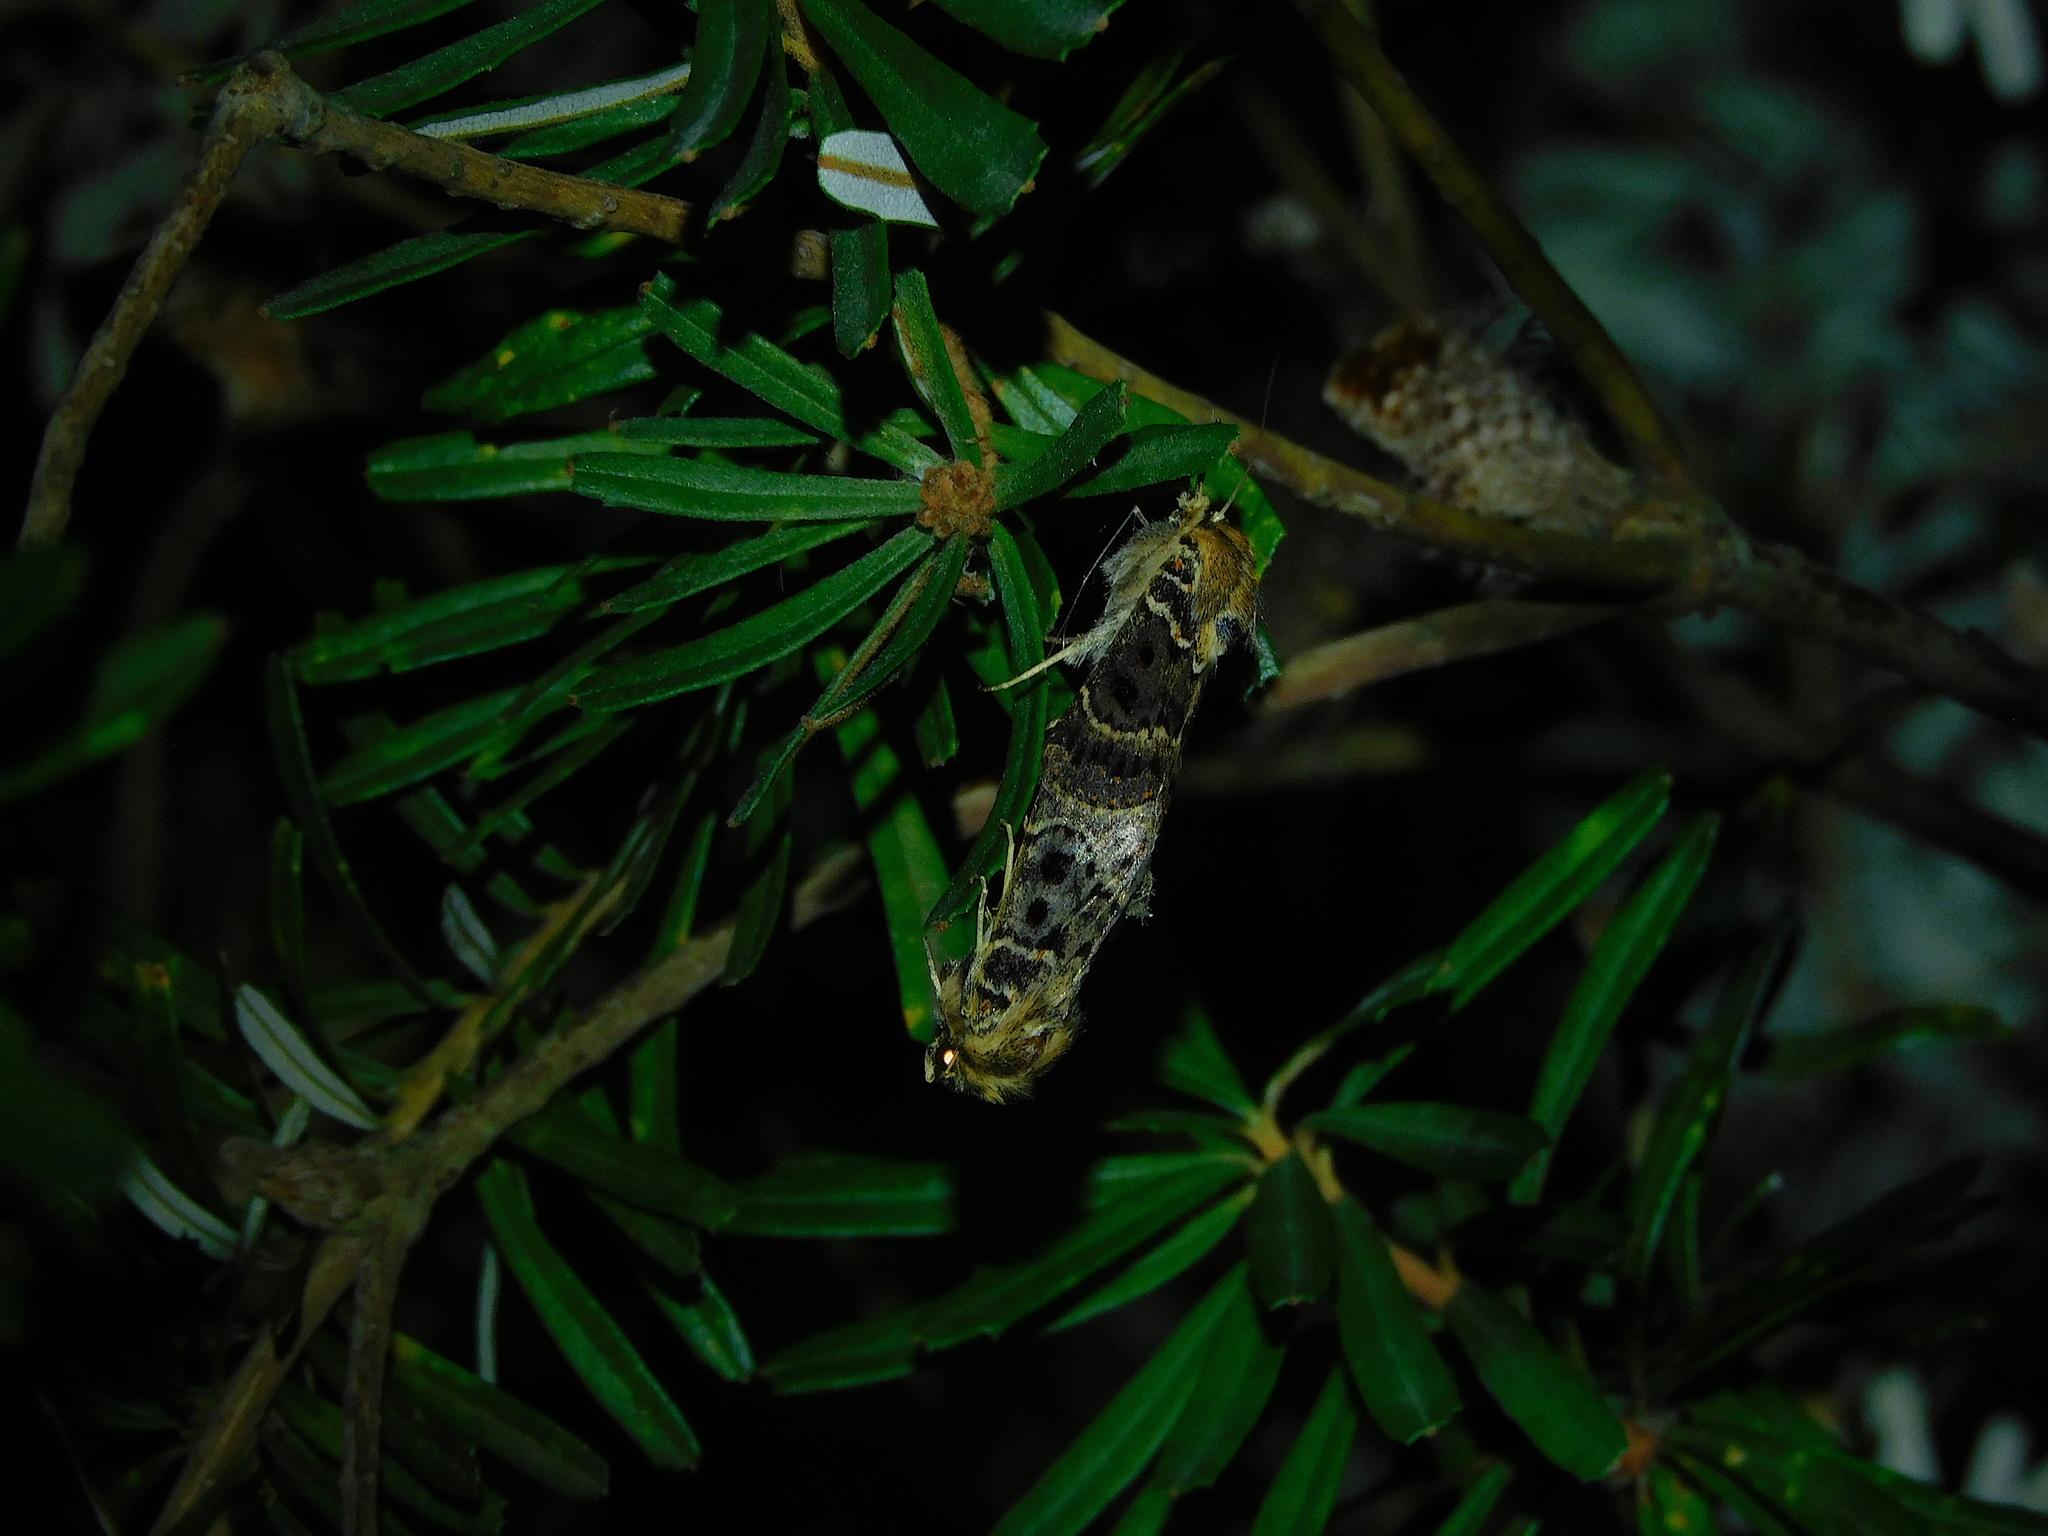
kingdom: Animalia
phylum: Arthropoda
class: Insecta
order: Lepidoptera
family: Noctuidae
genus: Proteuxoa
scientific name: Proteuxoa sanguinipuncta
